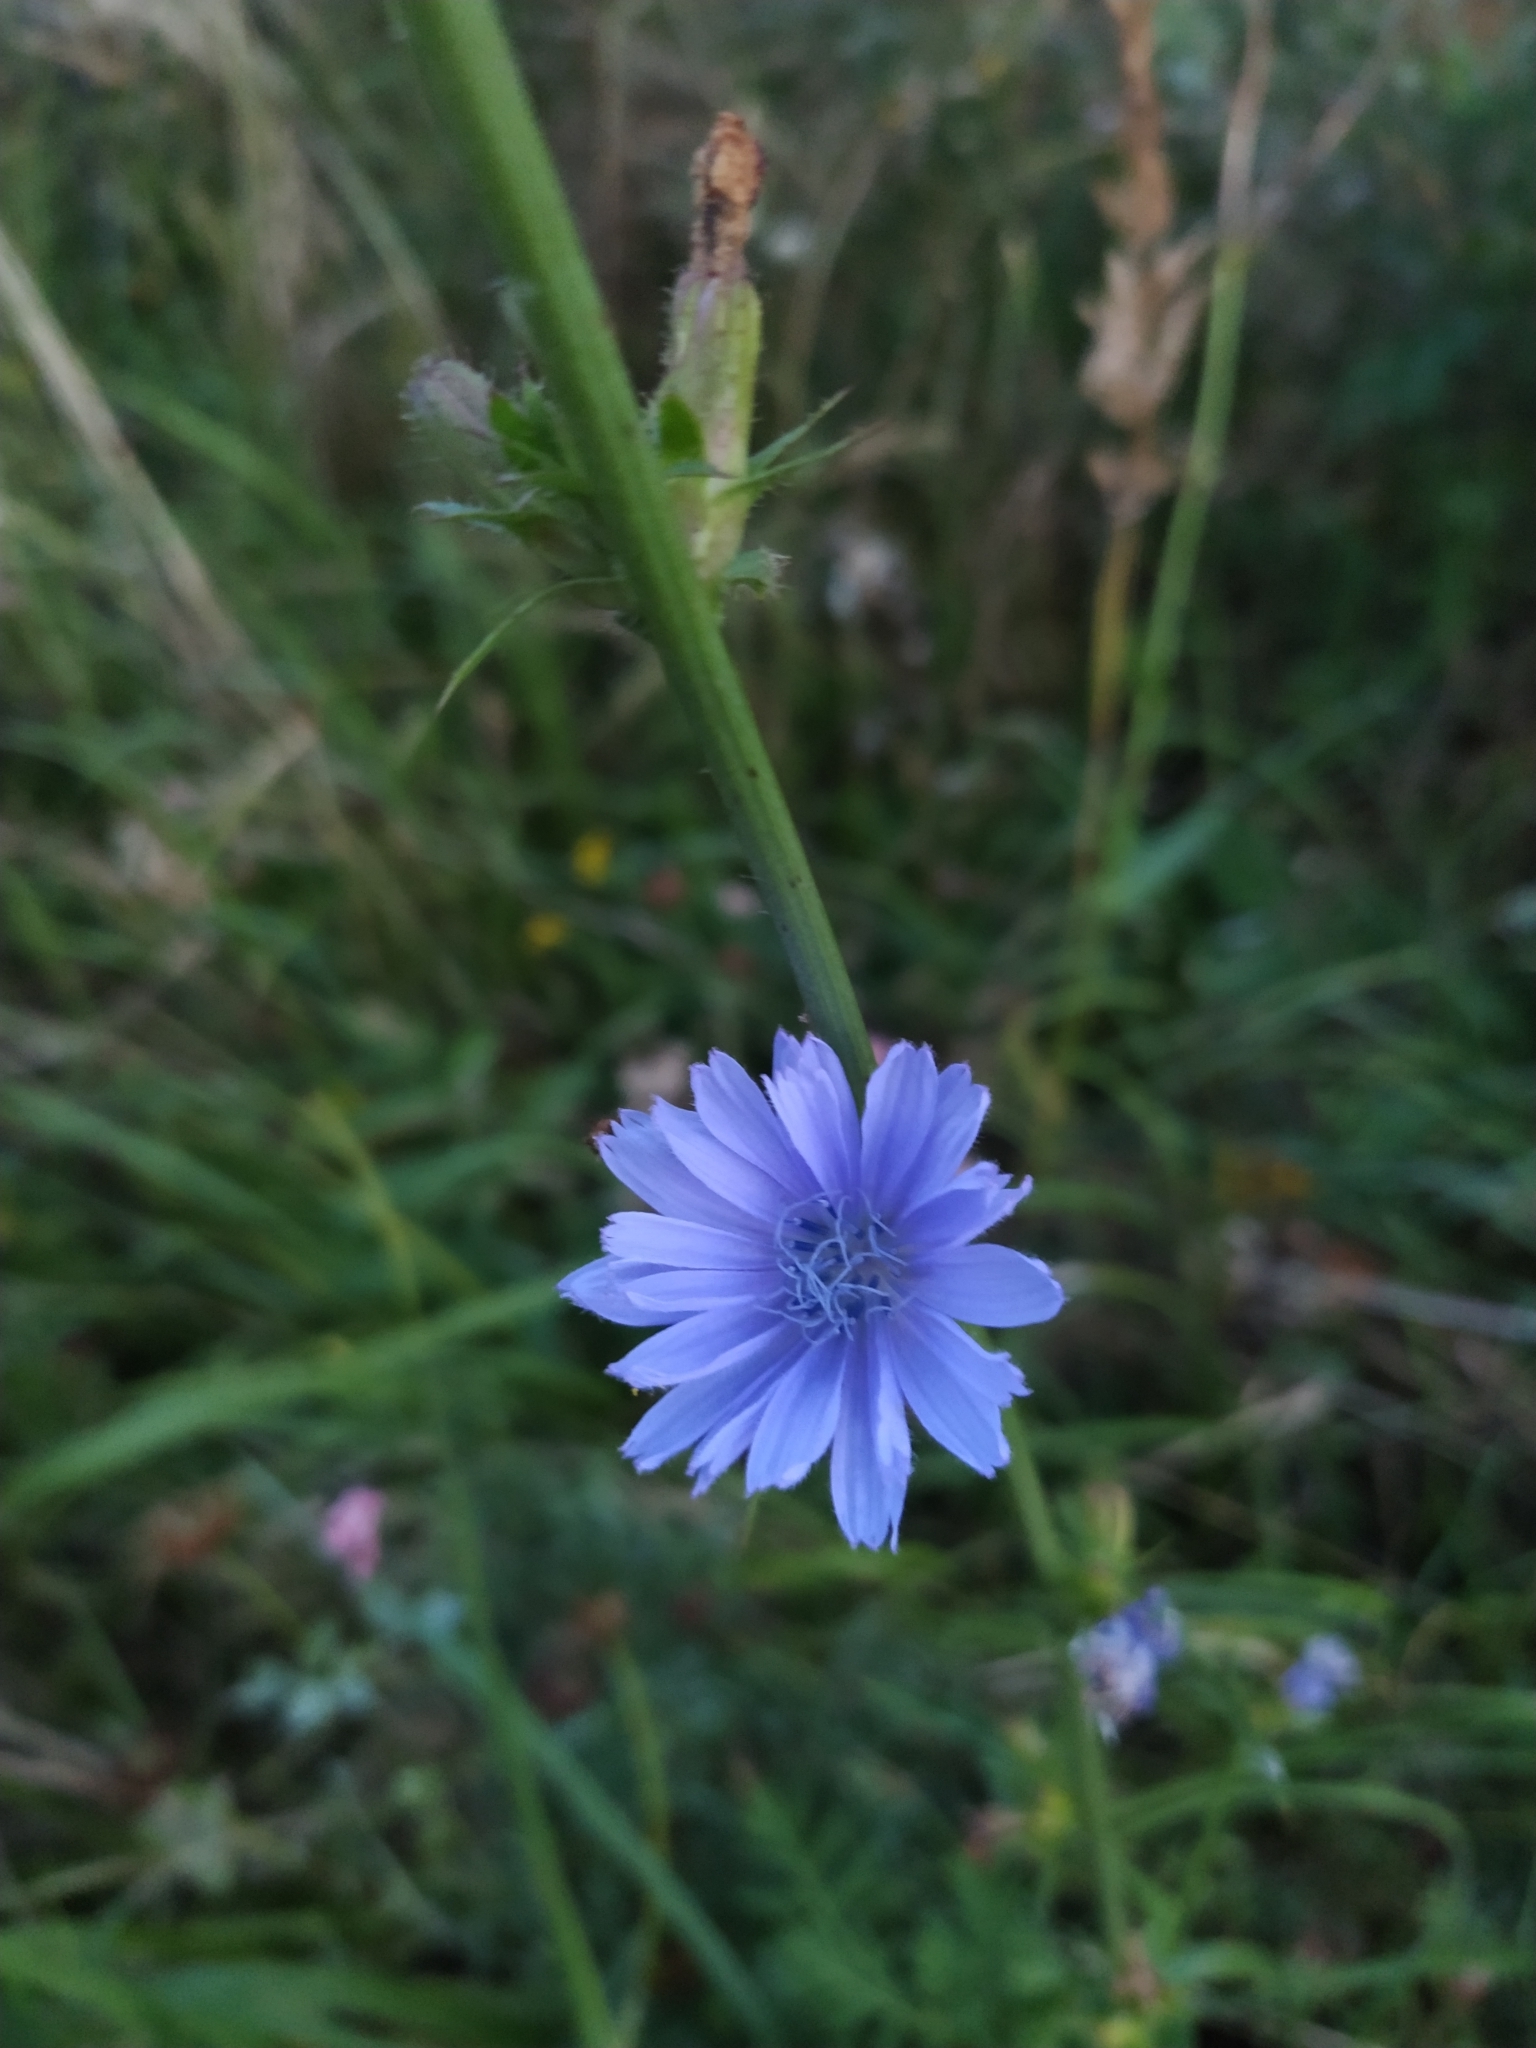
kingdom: Plantae
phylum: Tracheophyta
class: Magnoliopsida
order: Asterales
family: Asteraceae
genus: Cichorium
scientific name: Cichorium intybus
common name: Chicory
